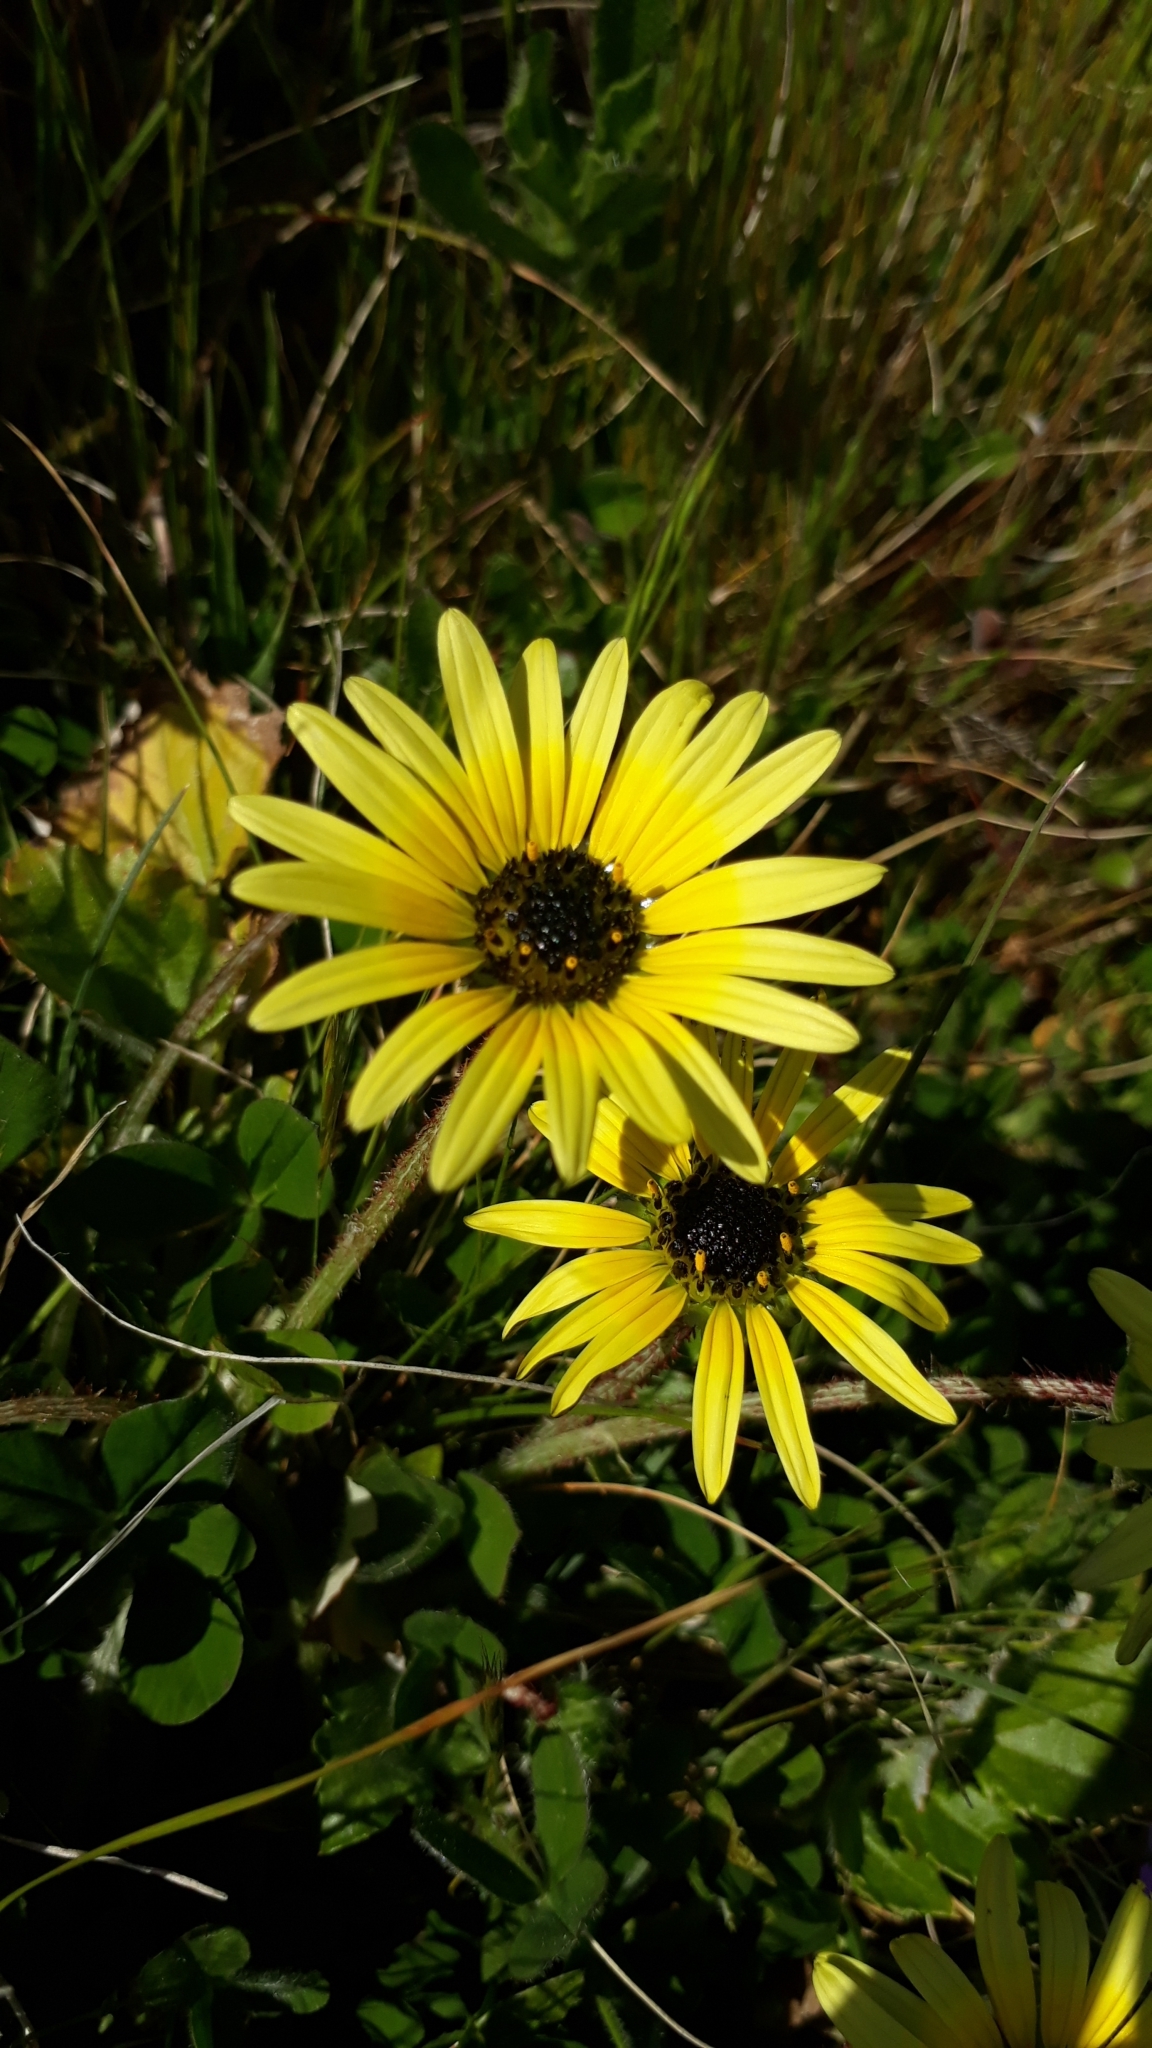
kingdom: Plantae
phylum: Tracheophyta
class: Magnoliopsida
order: Asterales
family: Asteraceae
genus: Arctotheca
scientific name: Arctotheca calendula
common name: Capeweed
